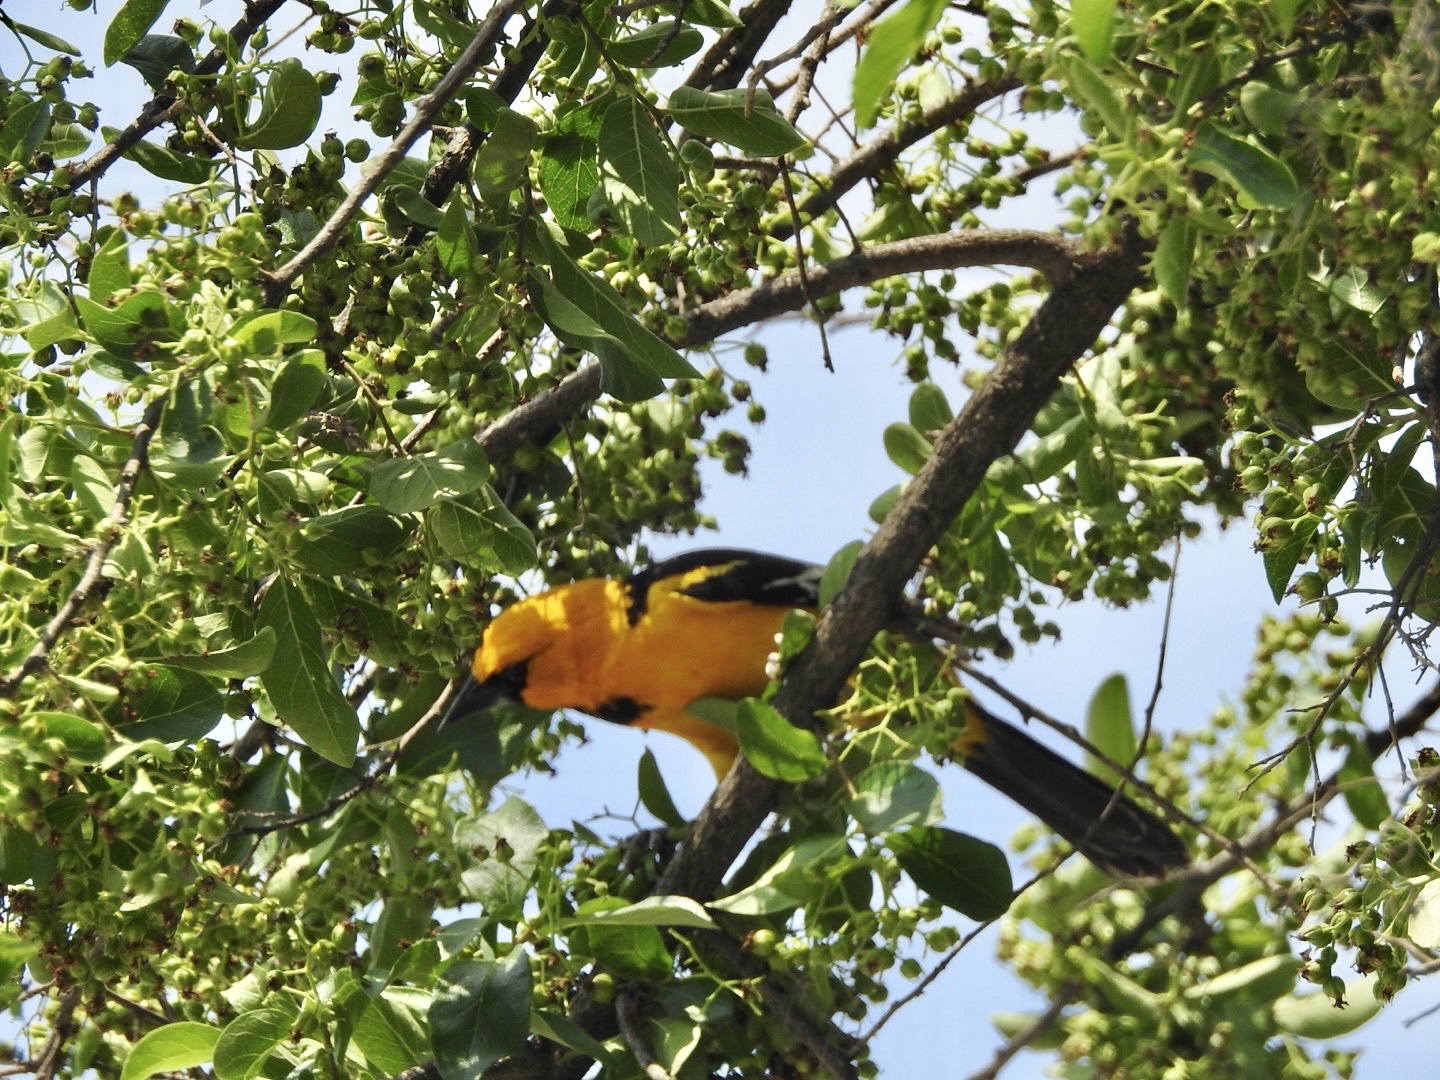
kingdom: Animalia
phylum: Chordata
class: Aves
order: Passeriformes
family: Icteridae
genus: Icterus
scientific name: Icterus gularis
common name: Altamira oriole
